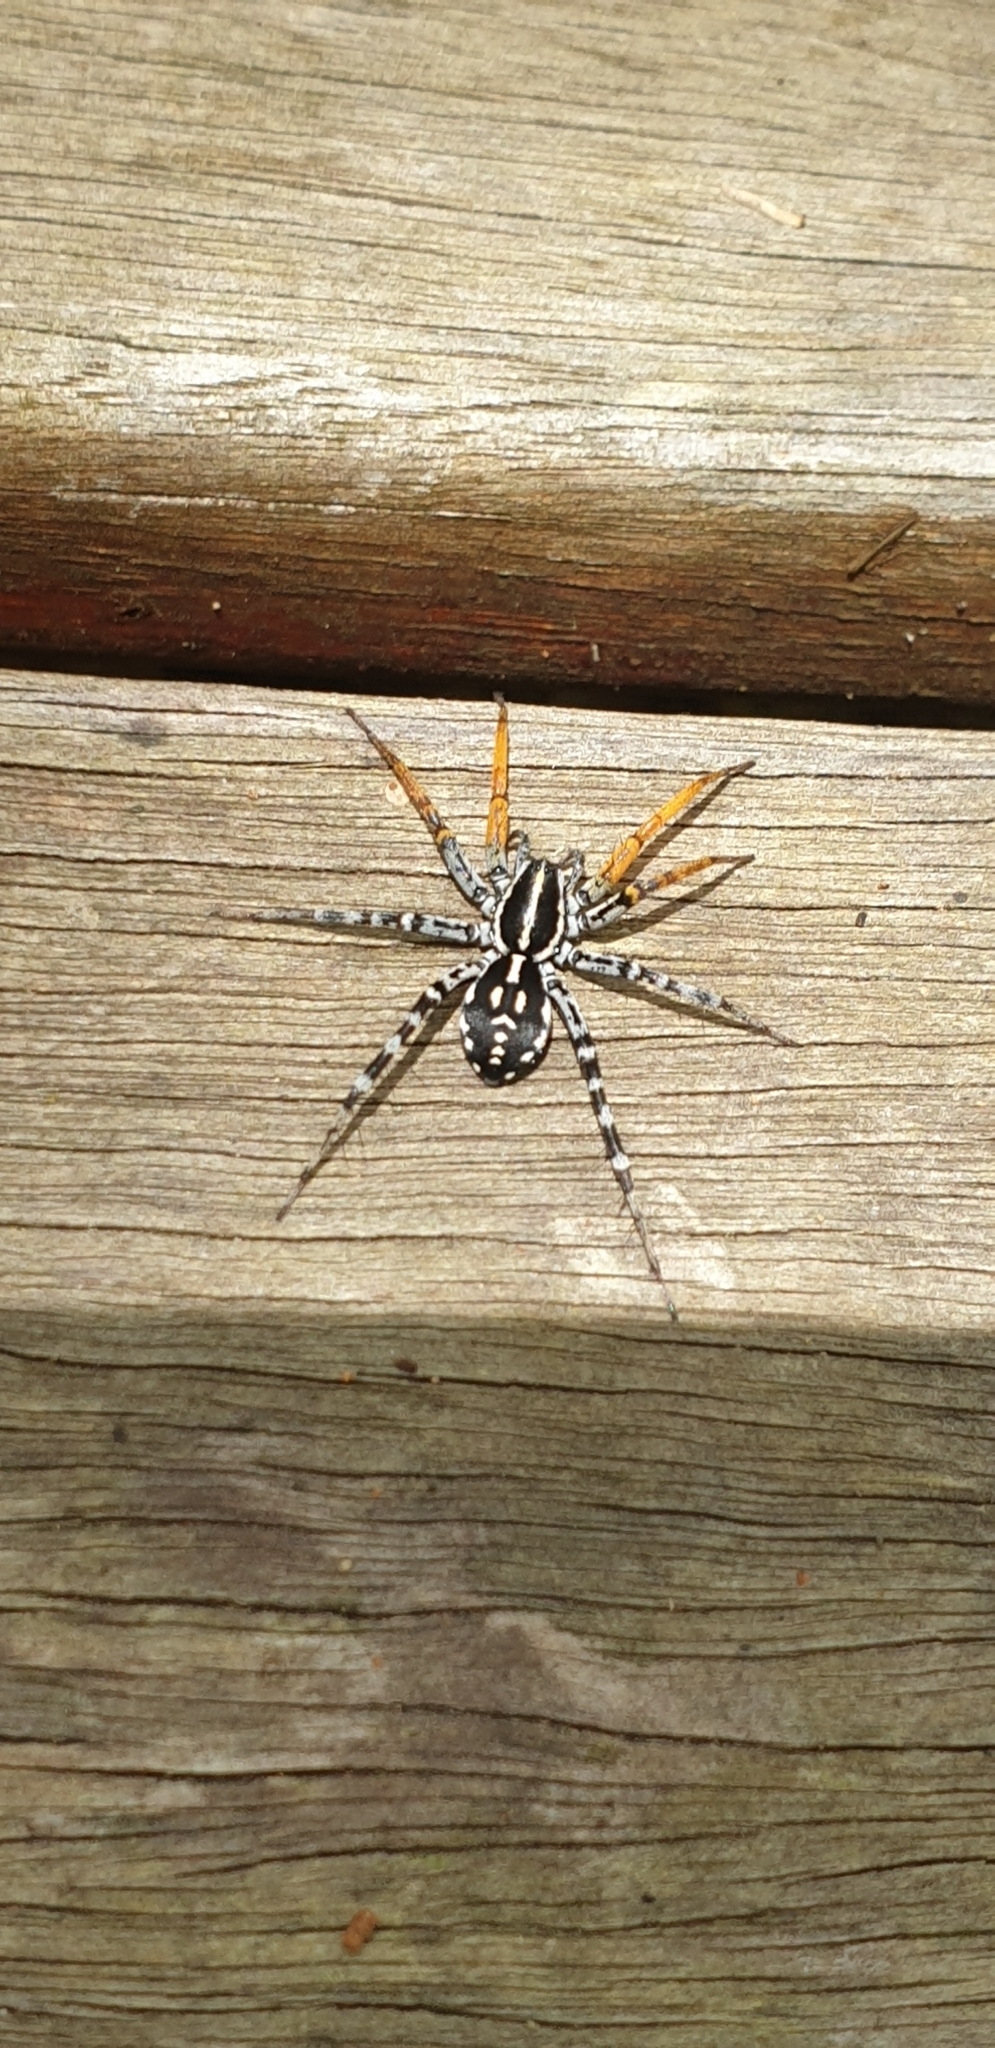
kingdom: Animalia
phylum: Arthropoda
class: Arachnida
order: Araneae
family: Corinnidae
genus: Nyssus
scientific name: Nyssus coloripes
